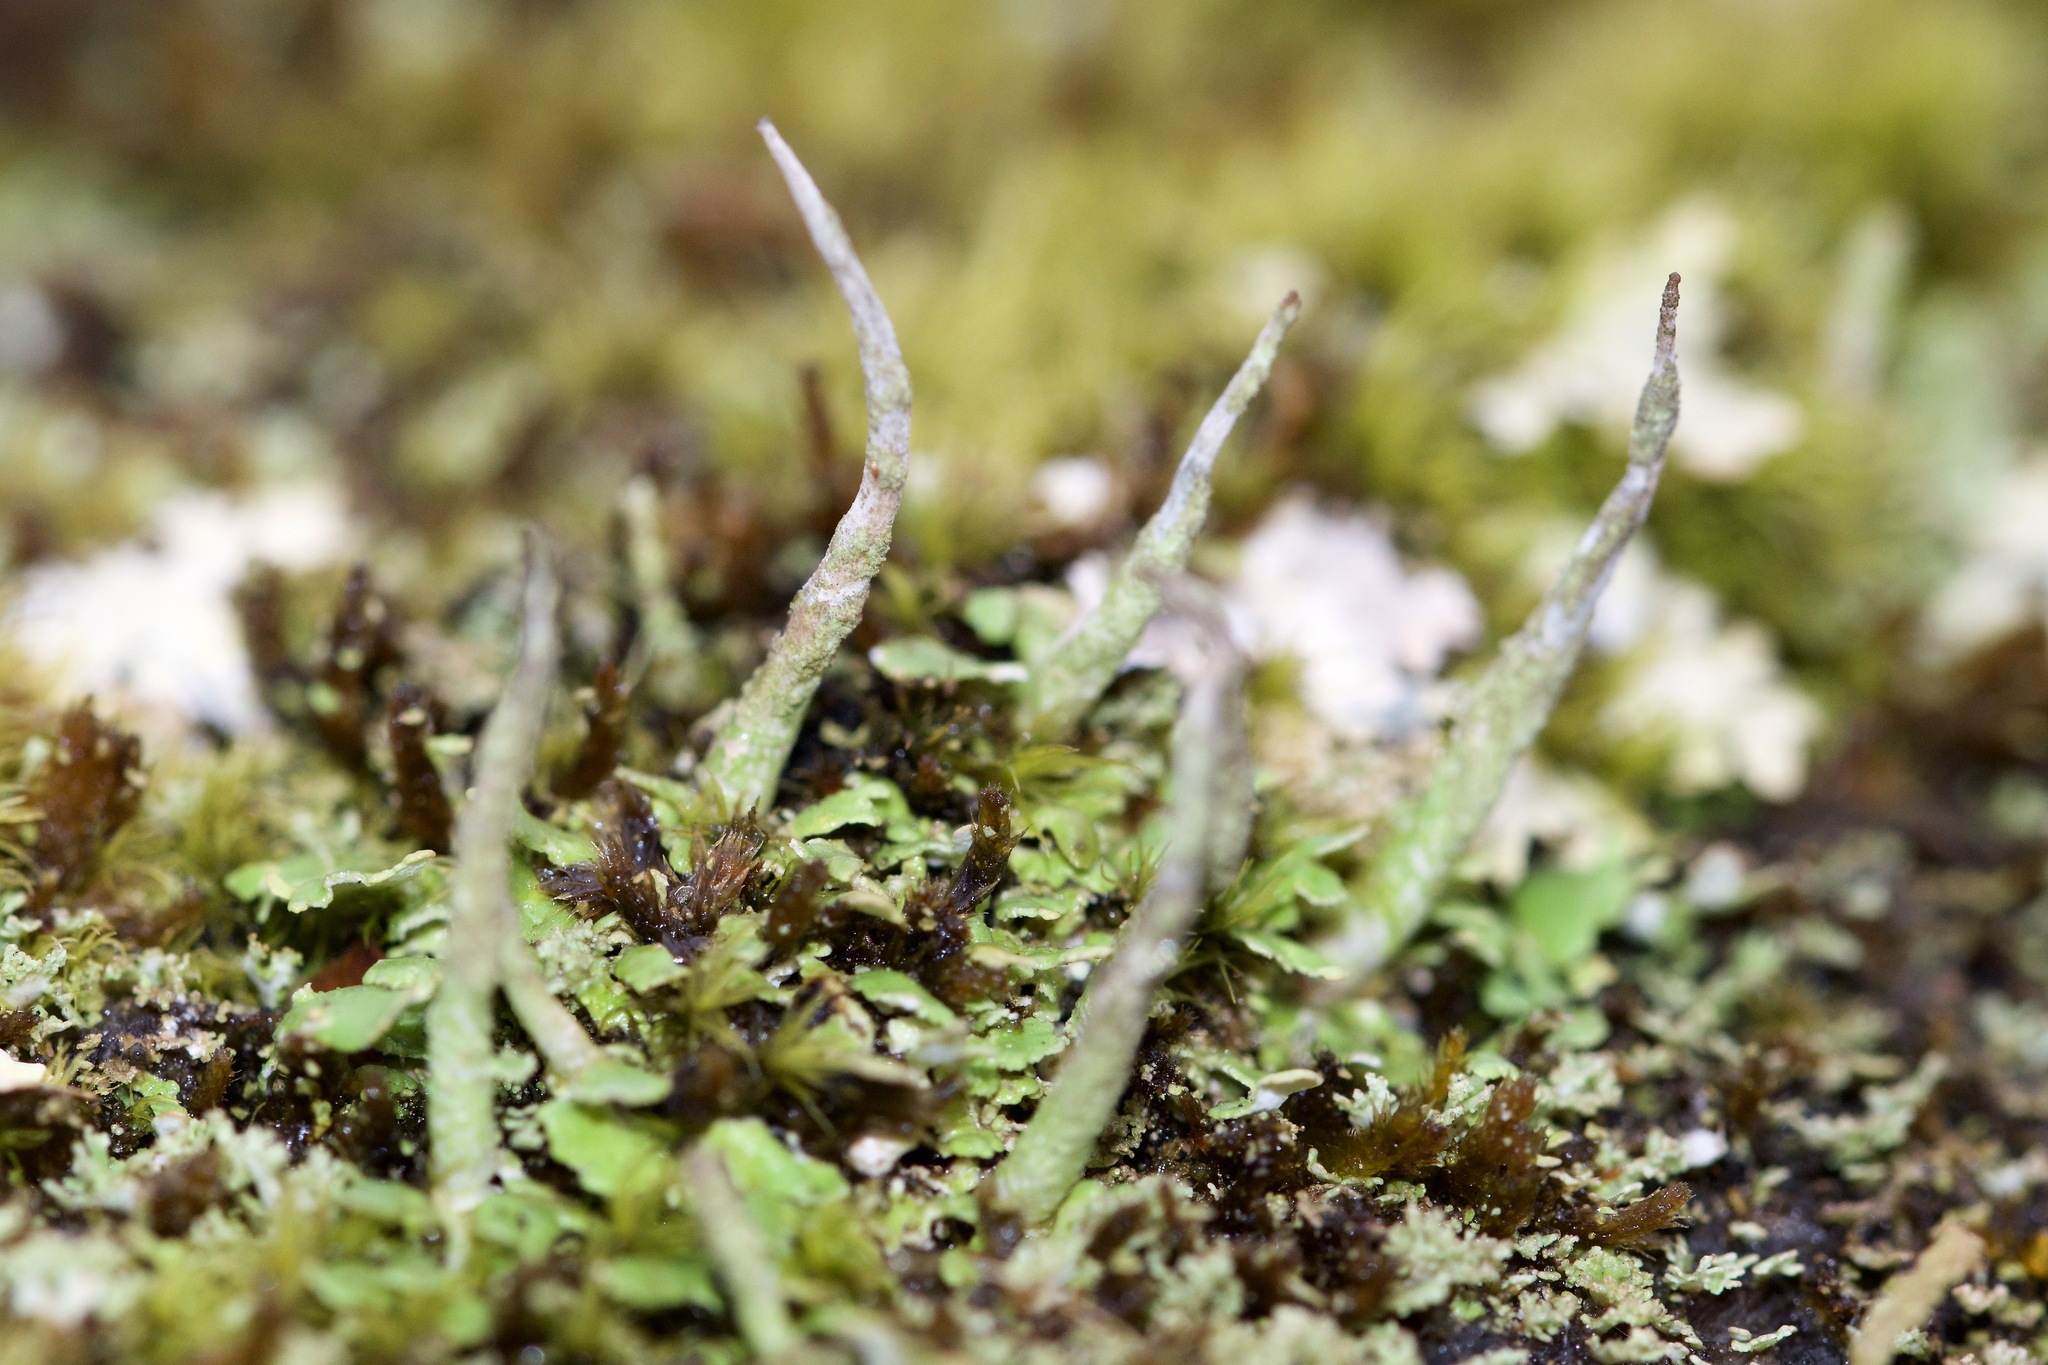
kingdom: Fungi
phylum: Ascomycota
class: Lecanoromycetes
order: Lecanorales
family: Cladoniaceae
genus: Cladonia
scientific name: Cladonia ochrochlora
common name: Smooth-footed powderhorn
